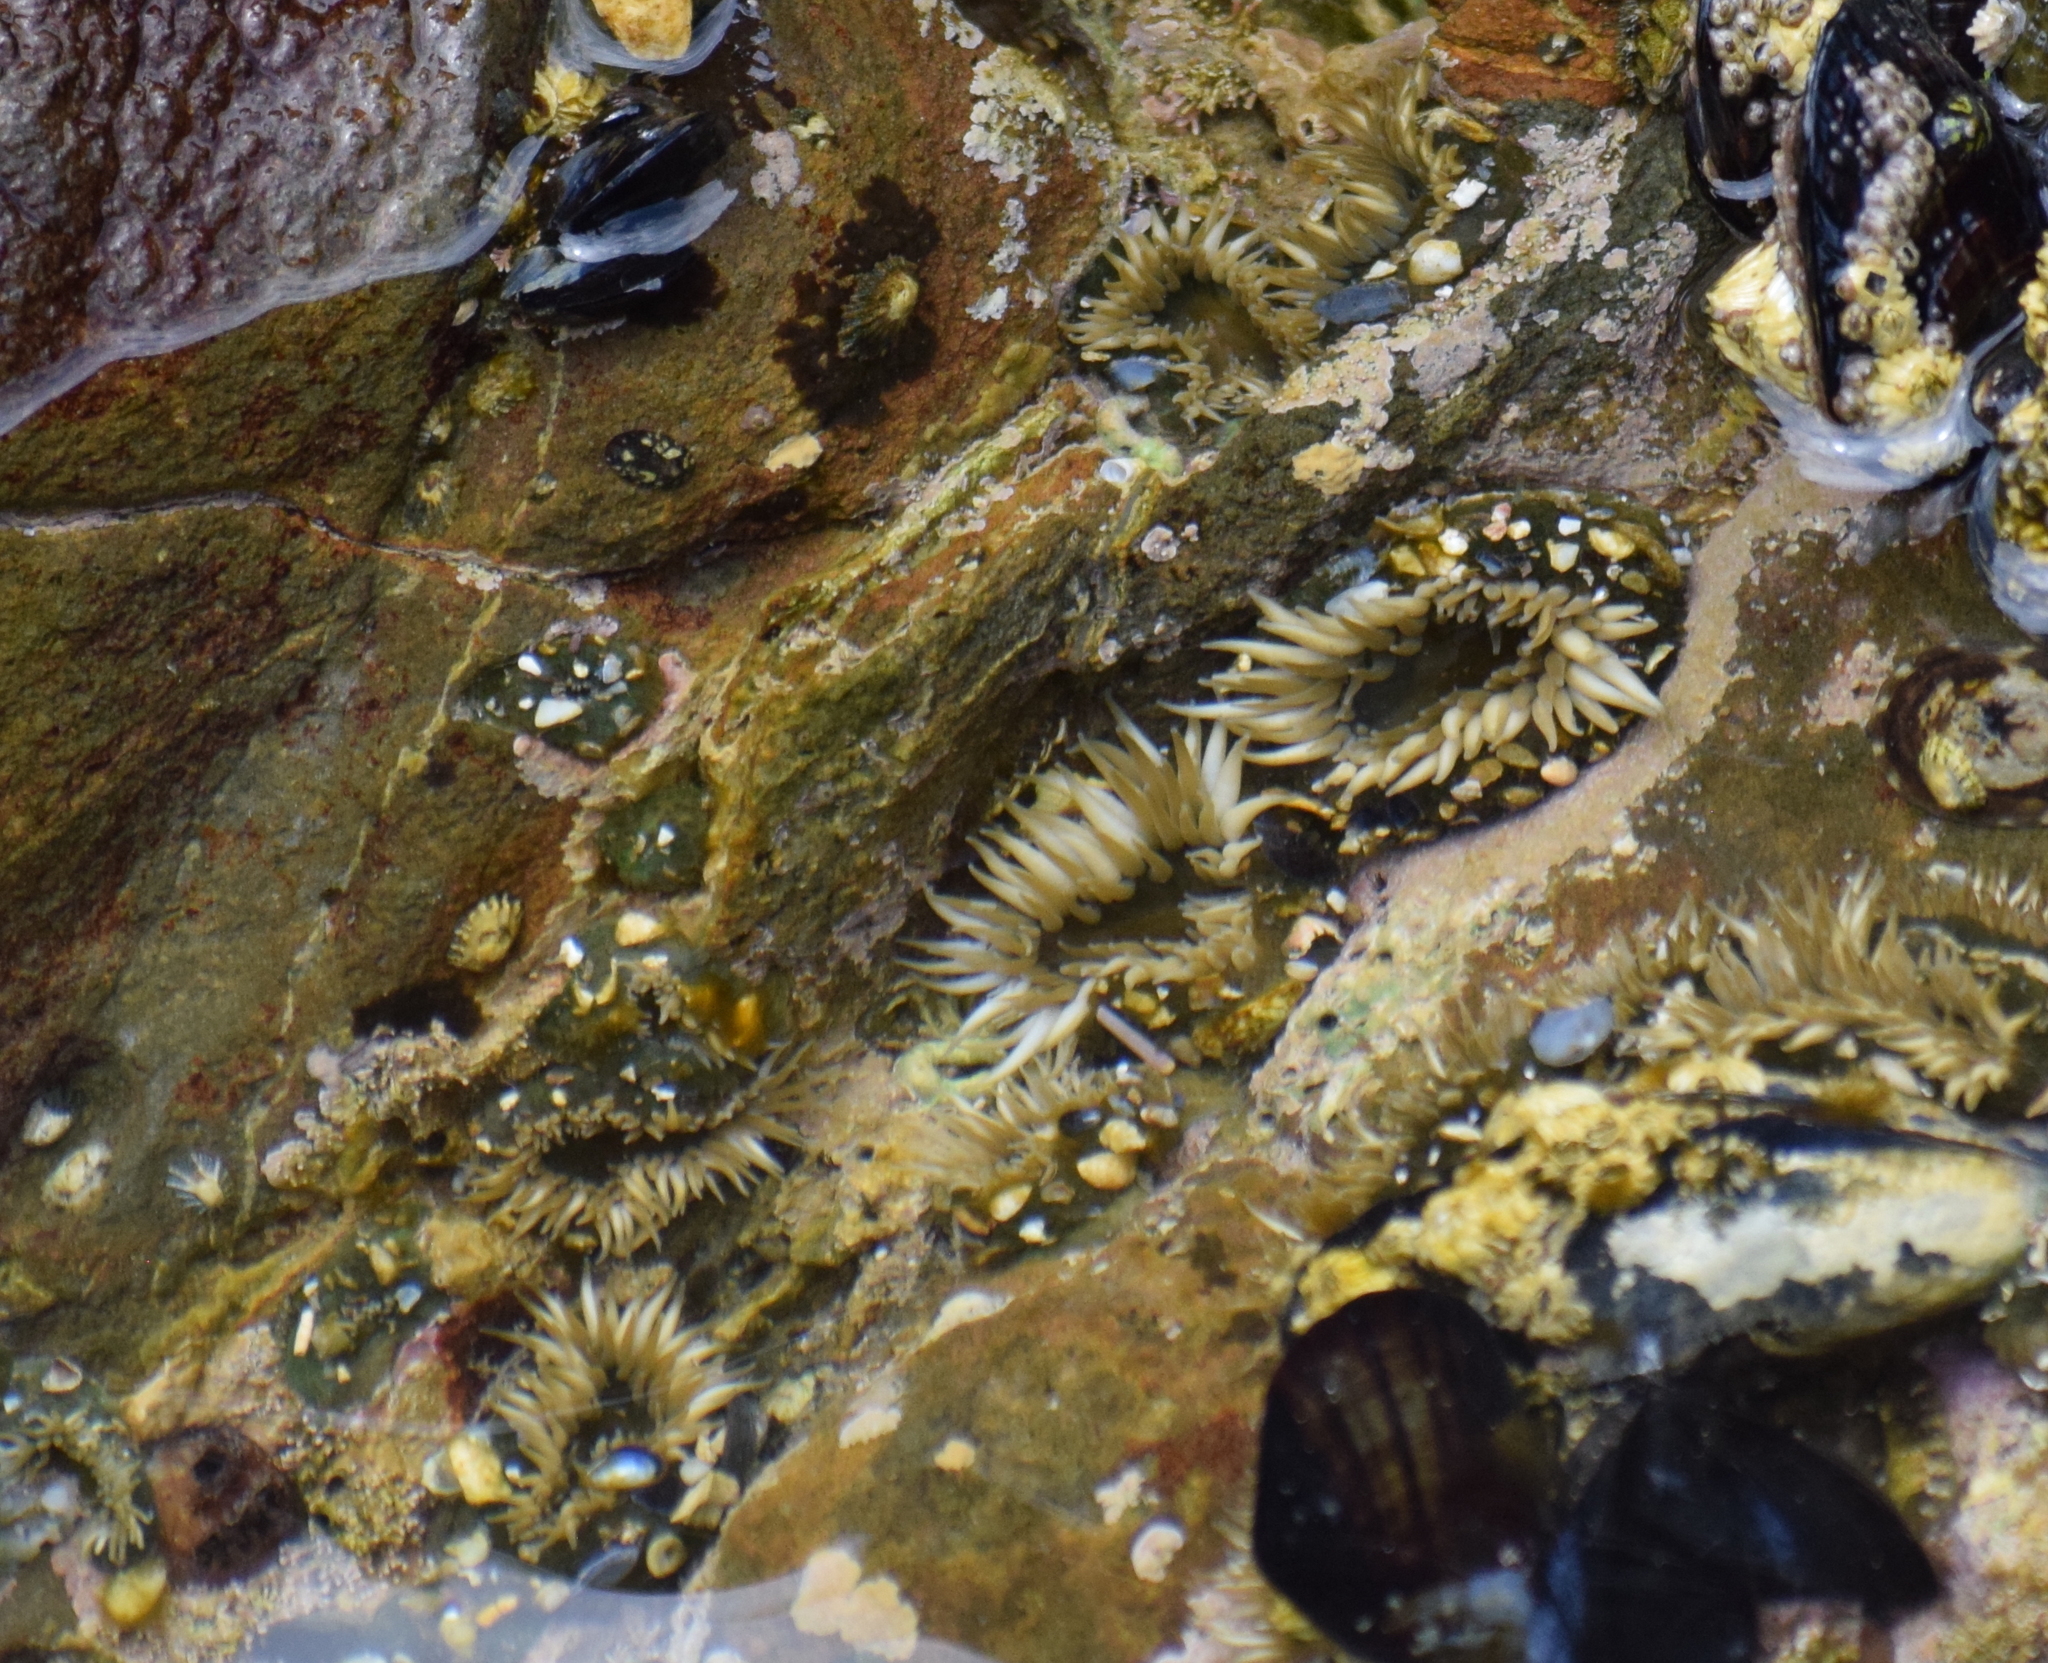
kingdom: Animalia
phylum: Cnidaria
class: Anthozoa
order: Actiniaria
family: Actiniidae
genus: Anthopleura
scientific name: Anthopleura elegantissima
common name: Clonal anemone
